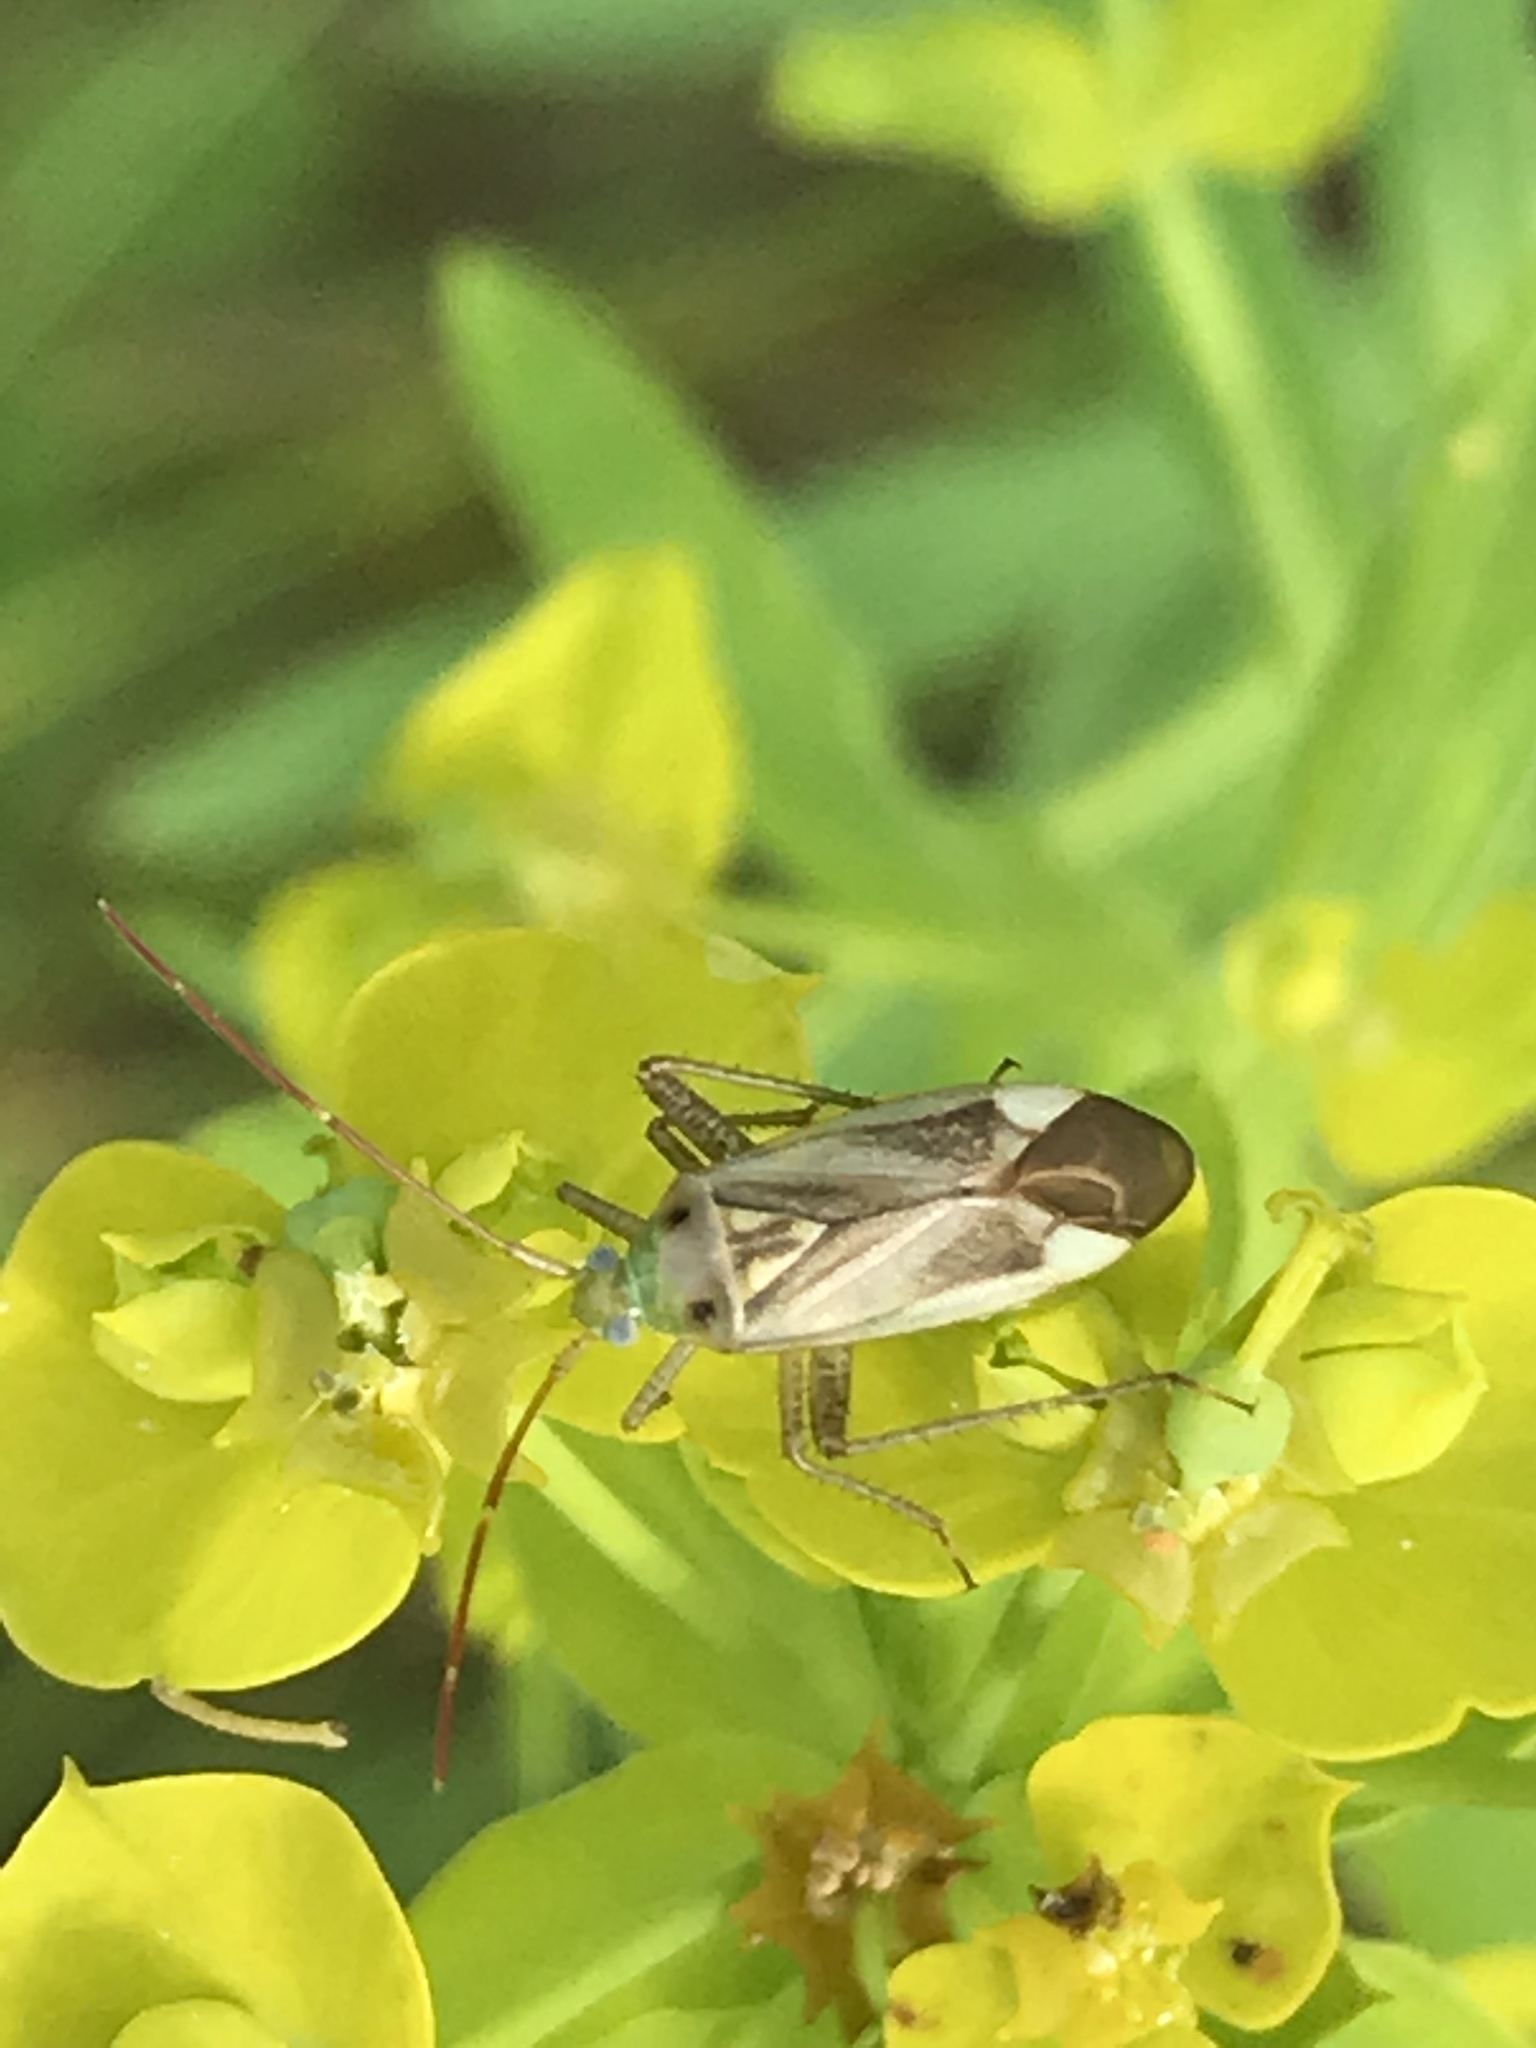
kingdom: Animalia
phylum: Arthropoda
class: Insecta
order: Hemiptera
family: Miridae
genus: Adelphocoris
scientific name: Adelphocoris lineolatus
